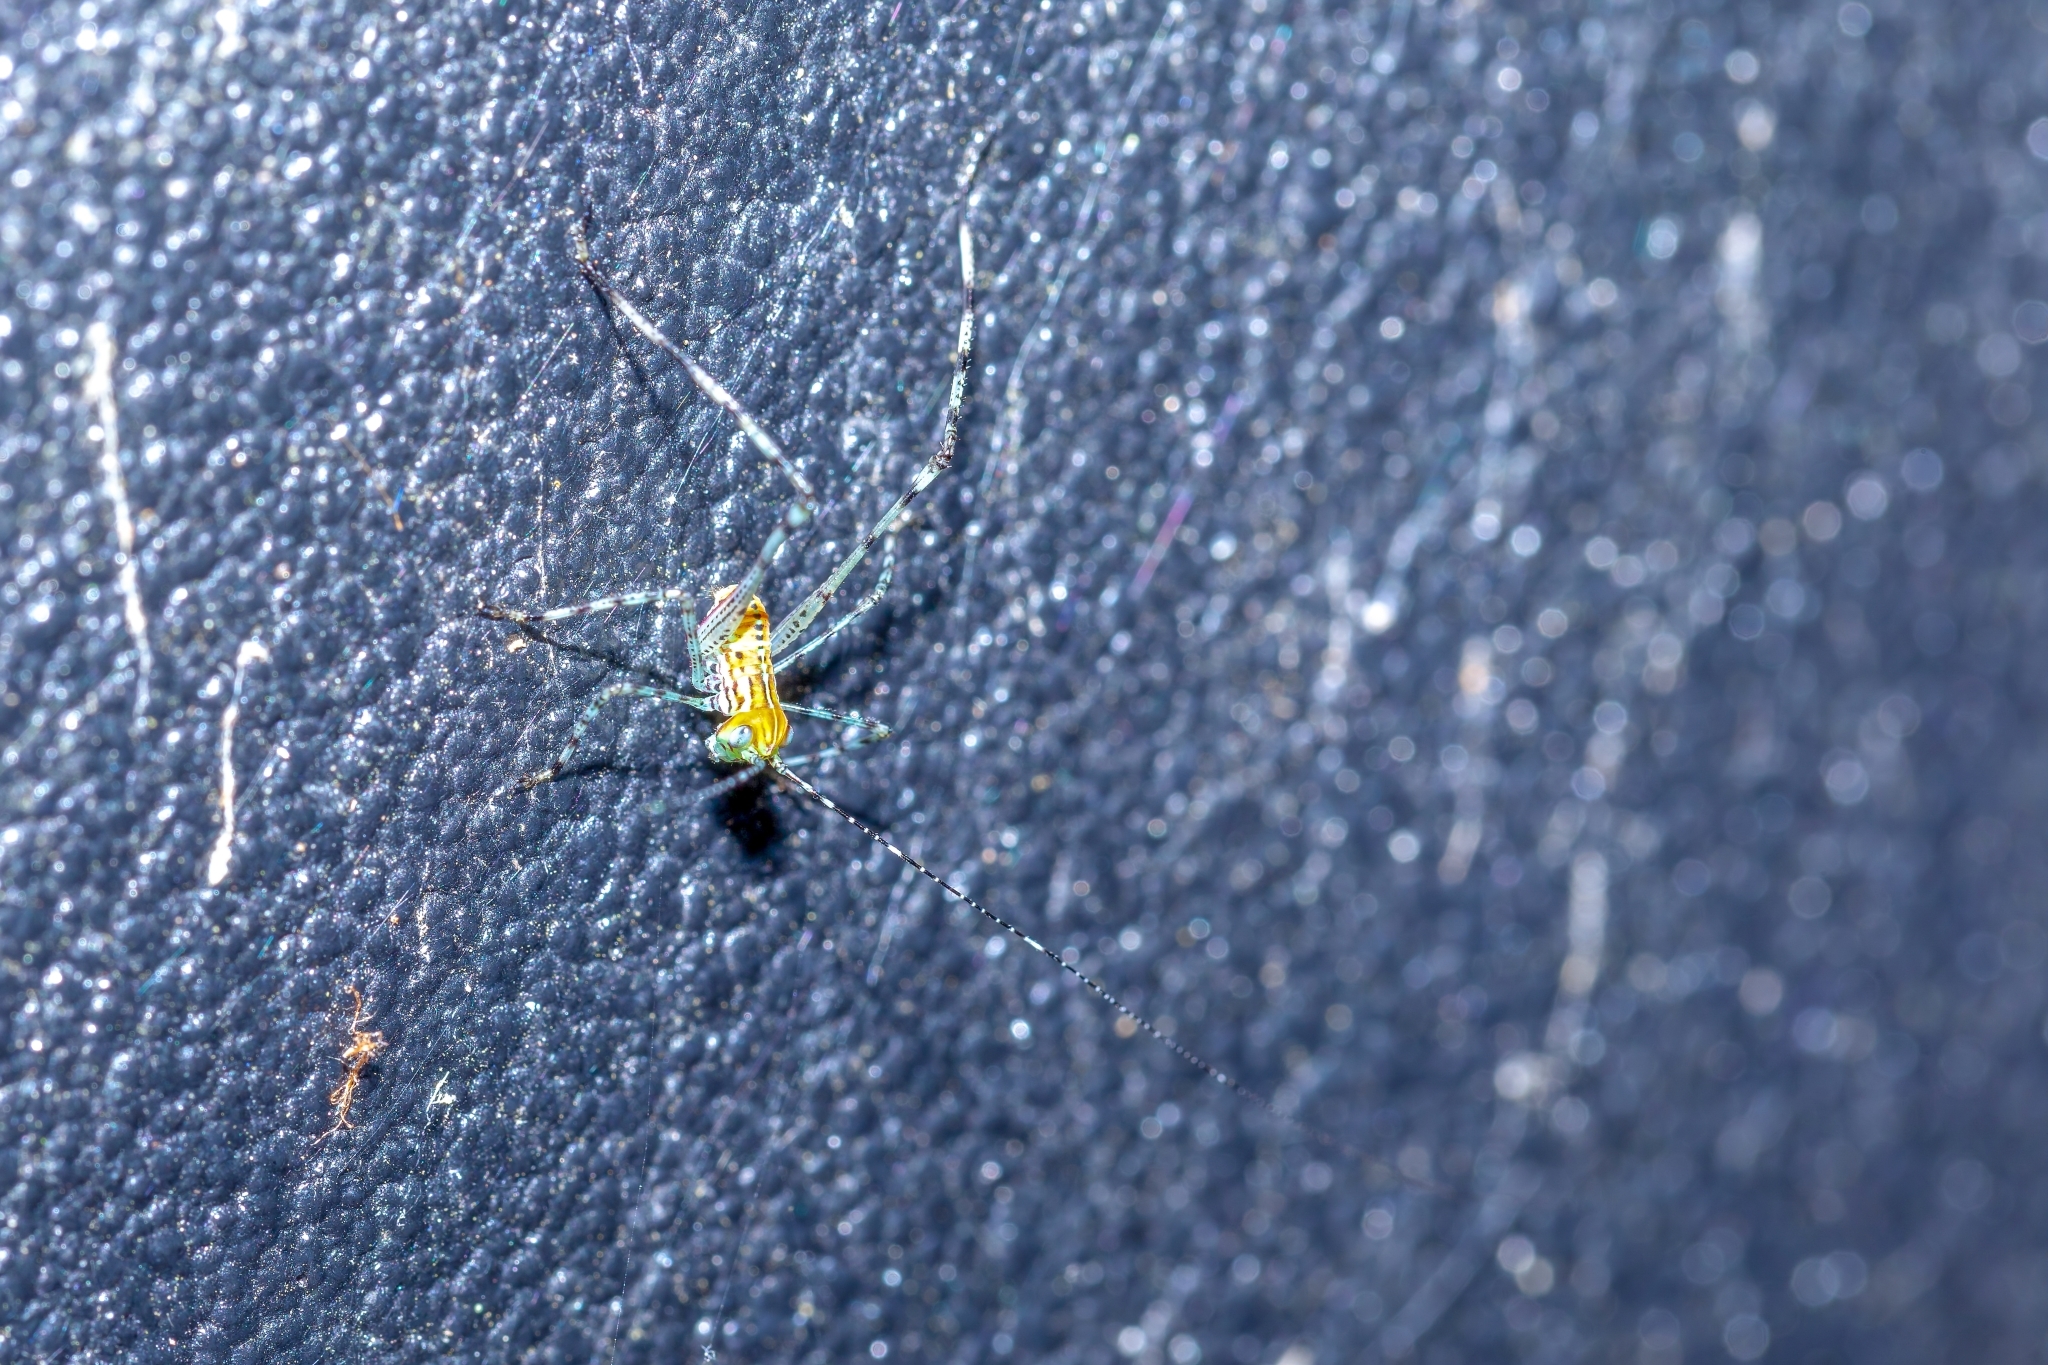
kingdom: Animalia
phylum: Arthropoda
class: Insecta
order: Orthoptera
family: Tettigoniidae
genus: Stilpnochlora
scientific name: Stilpnochlora couloniana
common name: Giant katydid
